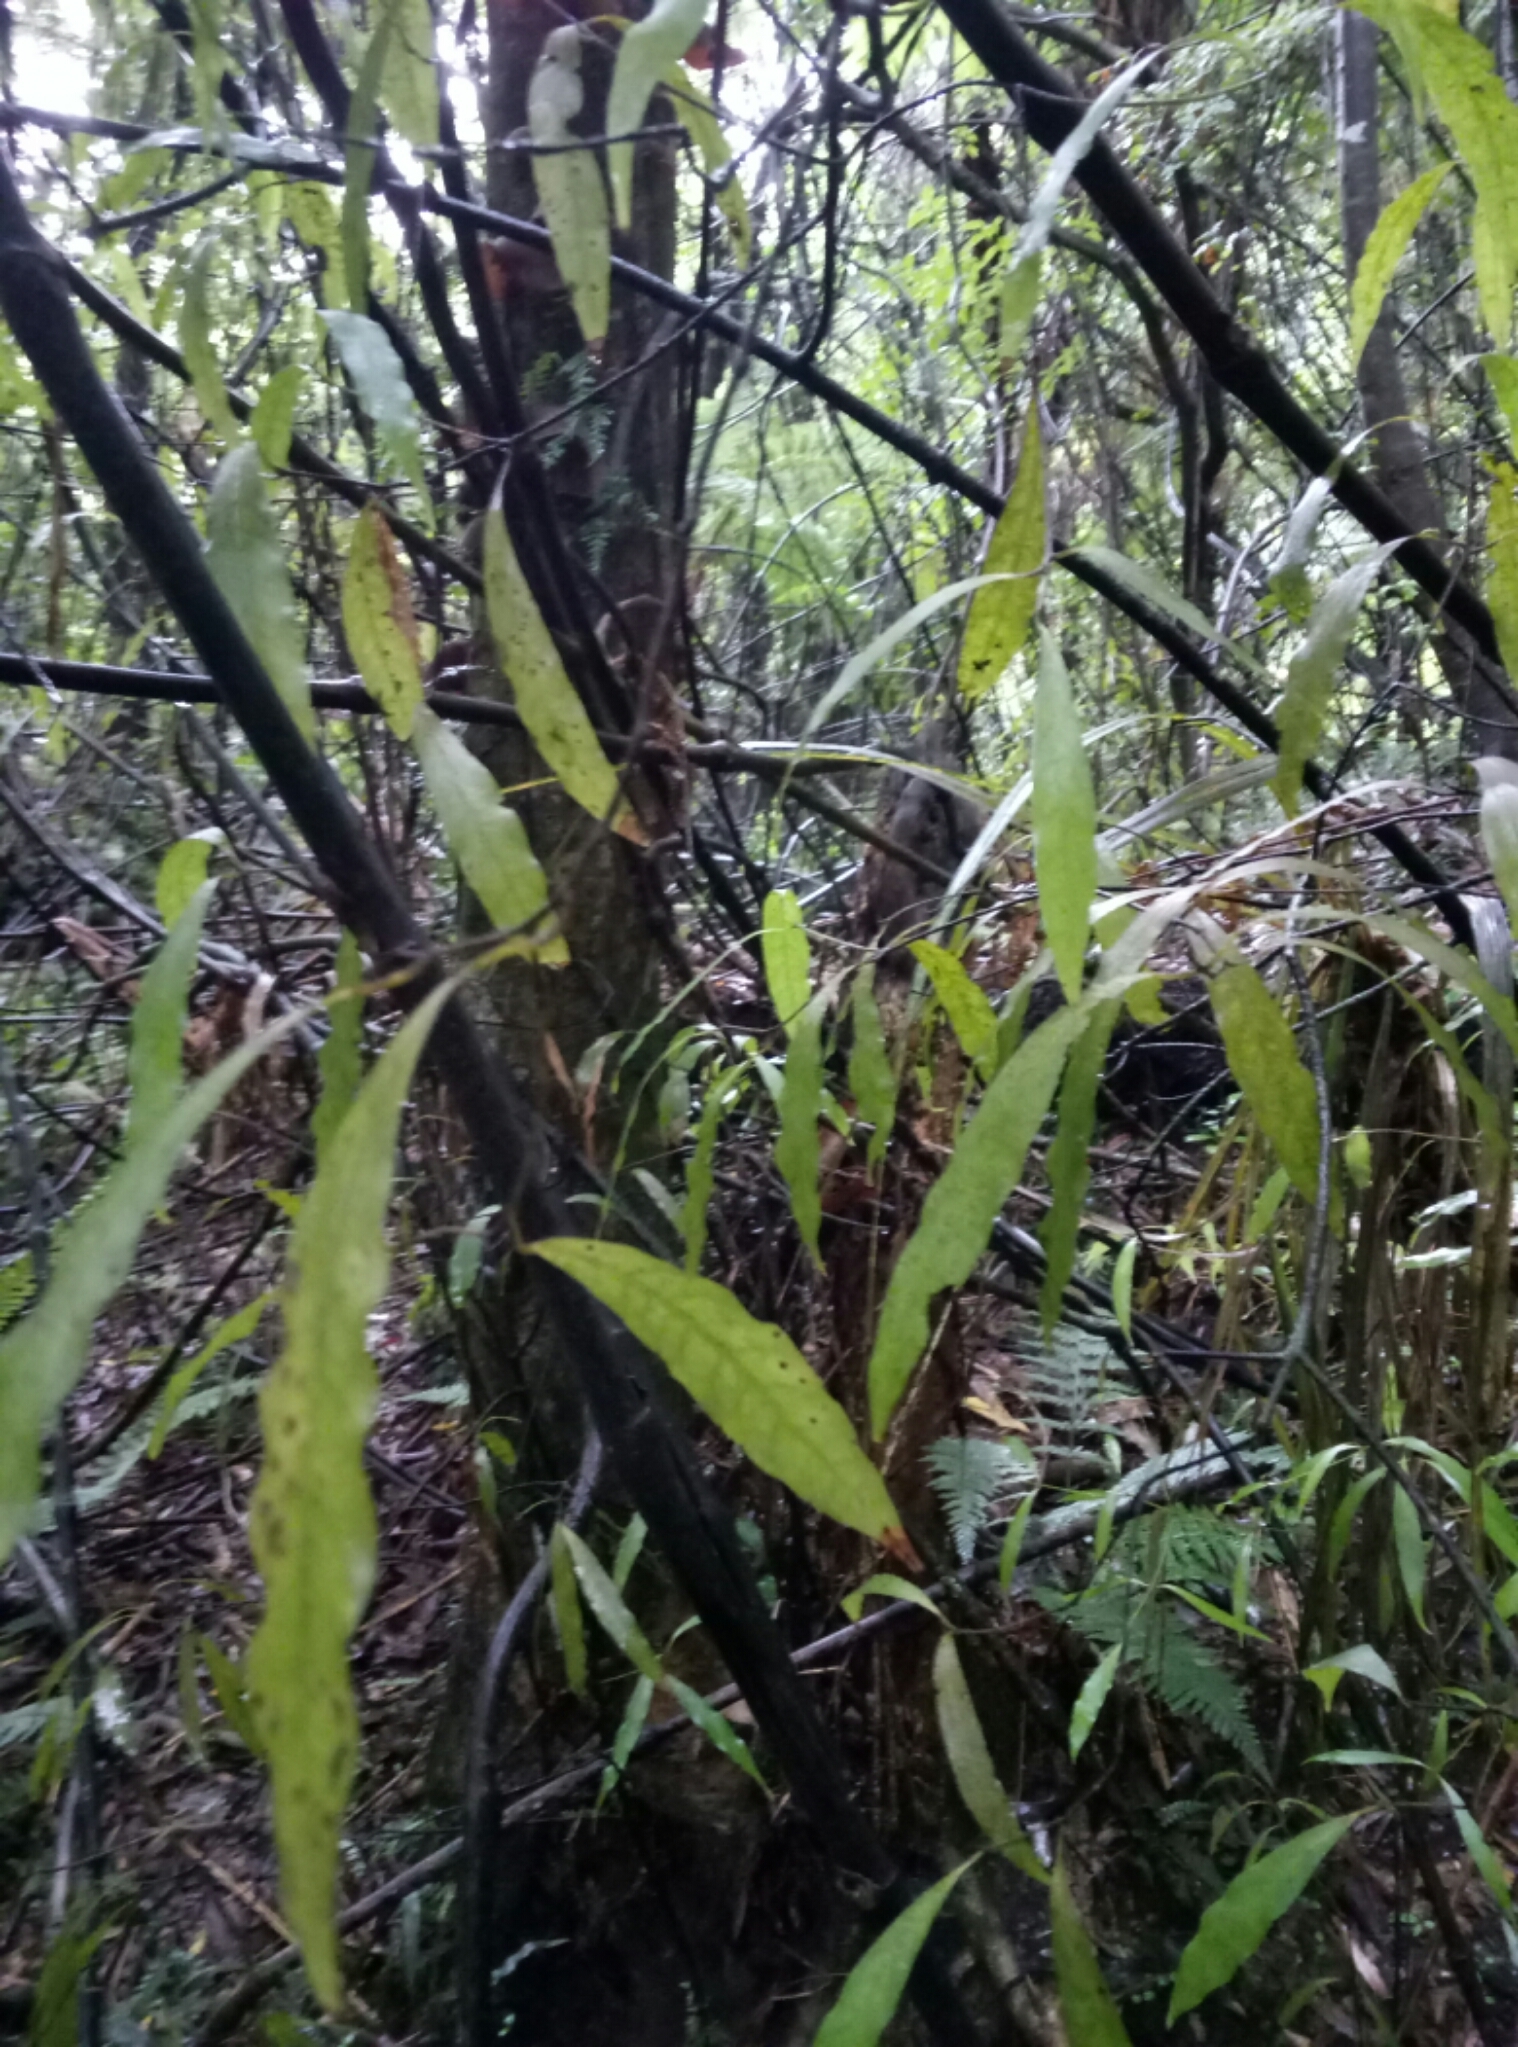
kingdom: Plantae
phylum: Tracheophyta
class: Magnoliopsida
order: Laurales
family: Lauraceae
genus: Beilschmiedia
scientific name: Beilschmiedia tawa
